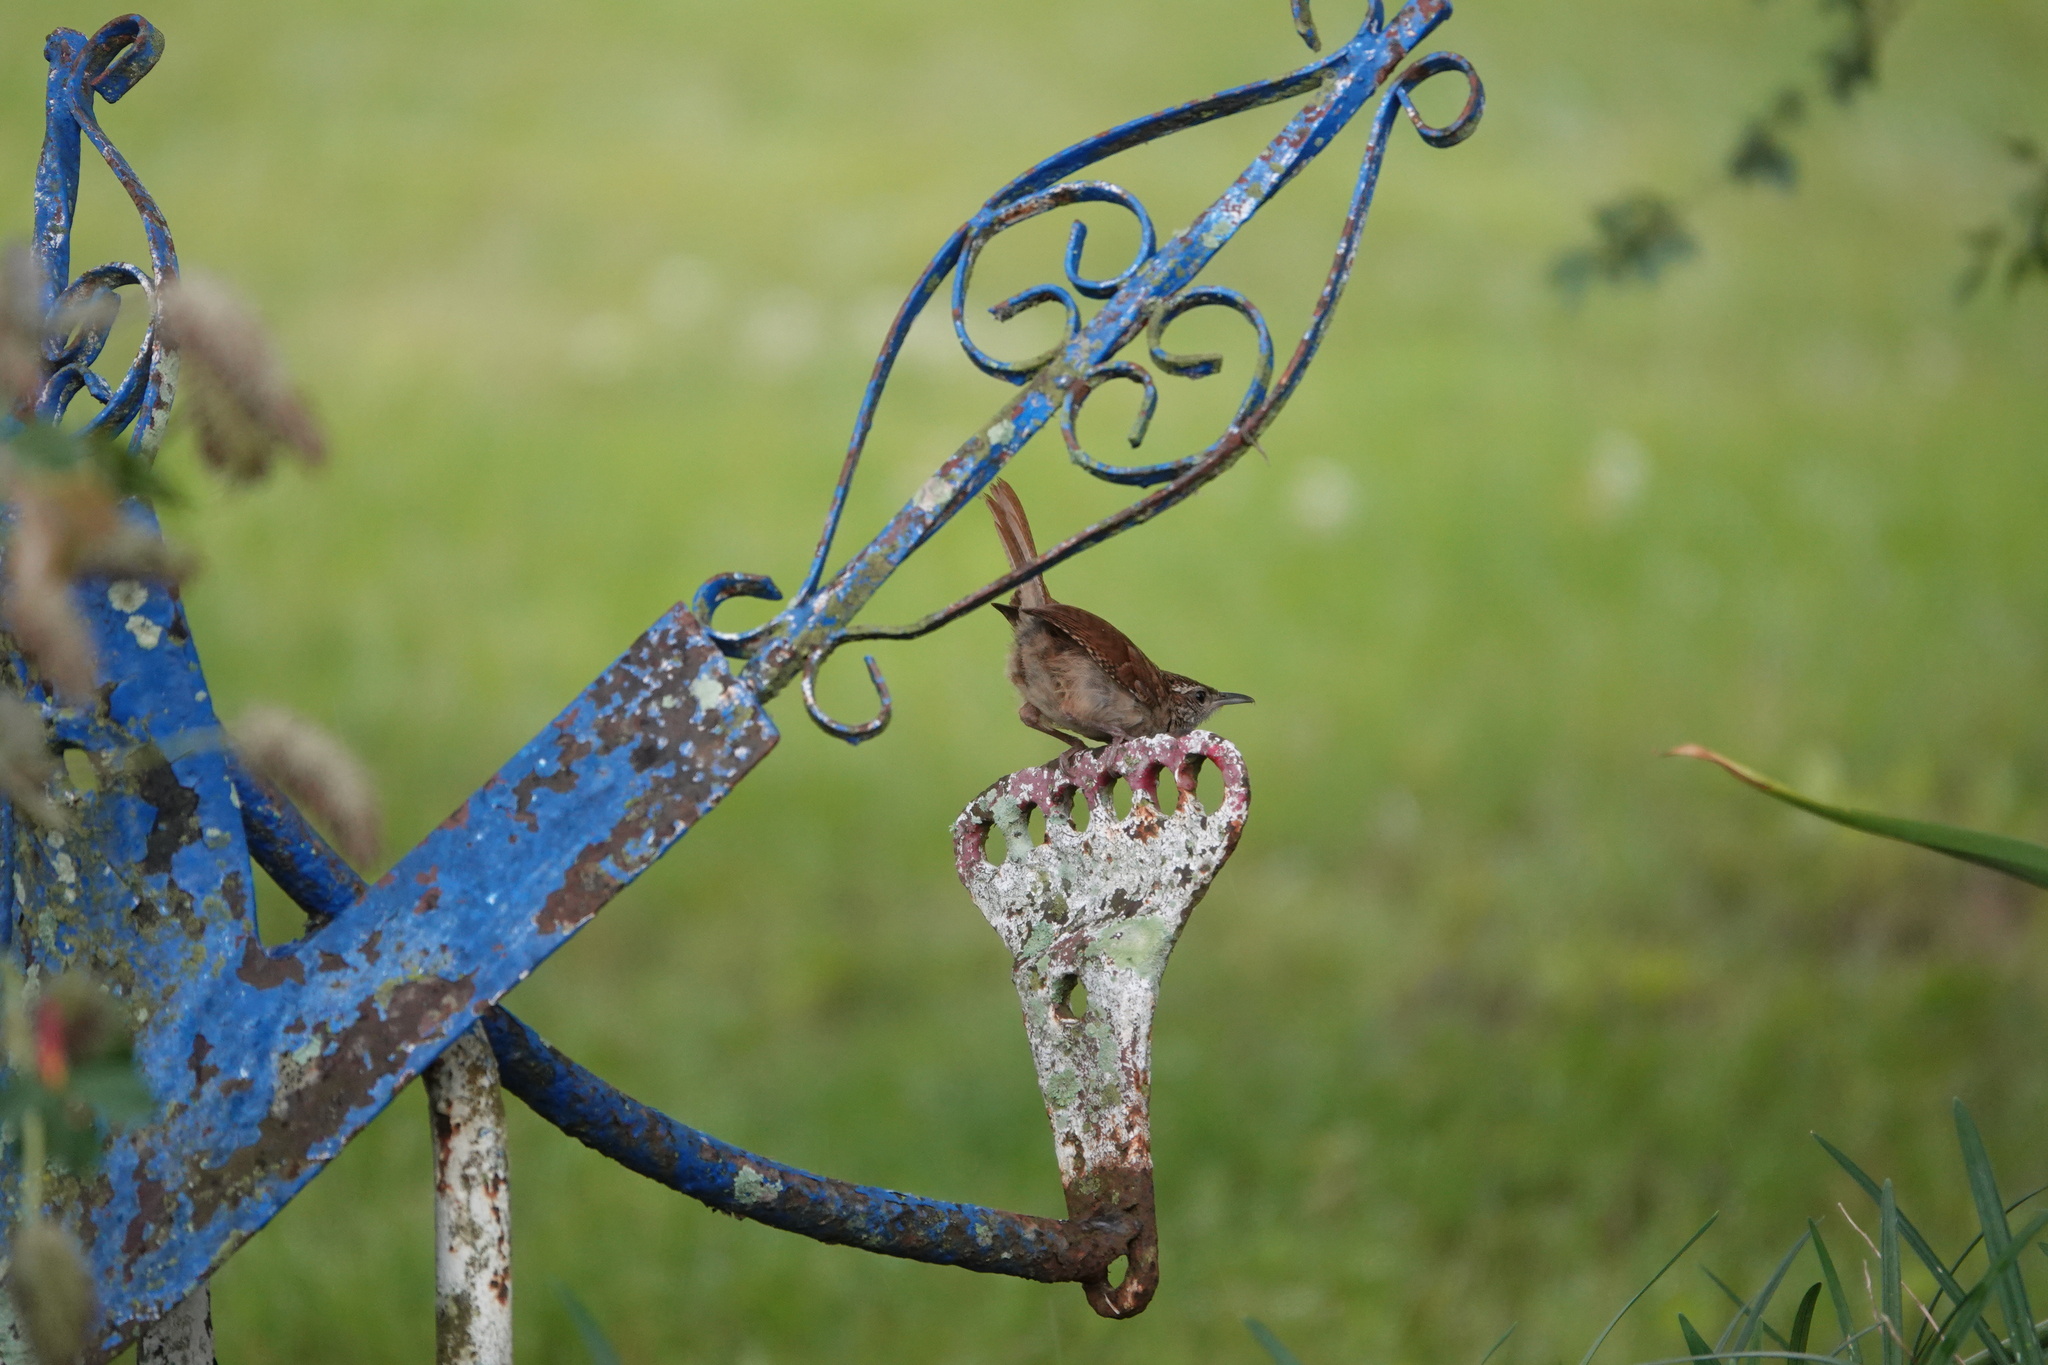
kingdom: Animalia
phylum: Chordata
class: Aves
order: Passeriformes
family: Troglodytidae
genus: Thryothorus
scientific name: Thryothorus ludovicianus
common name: Carolina wren
